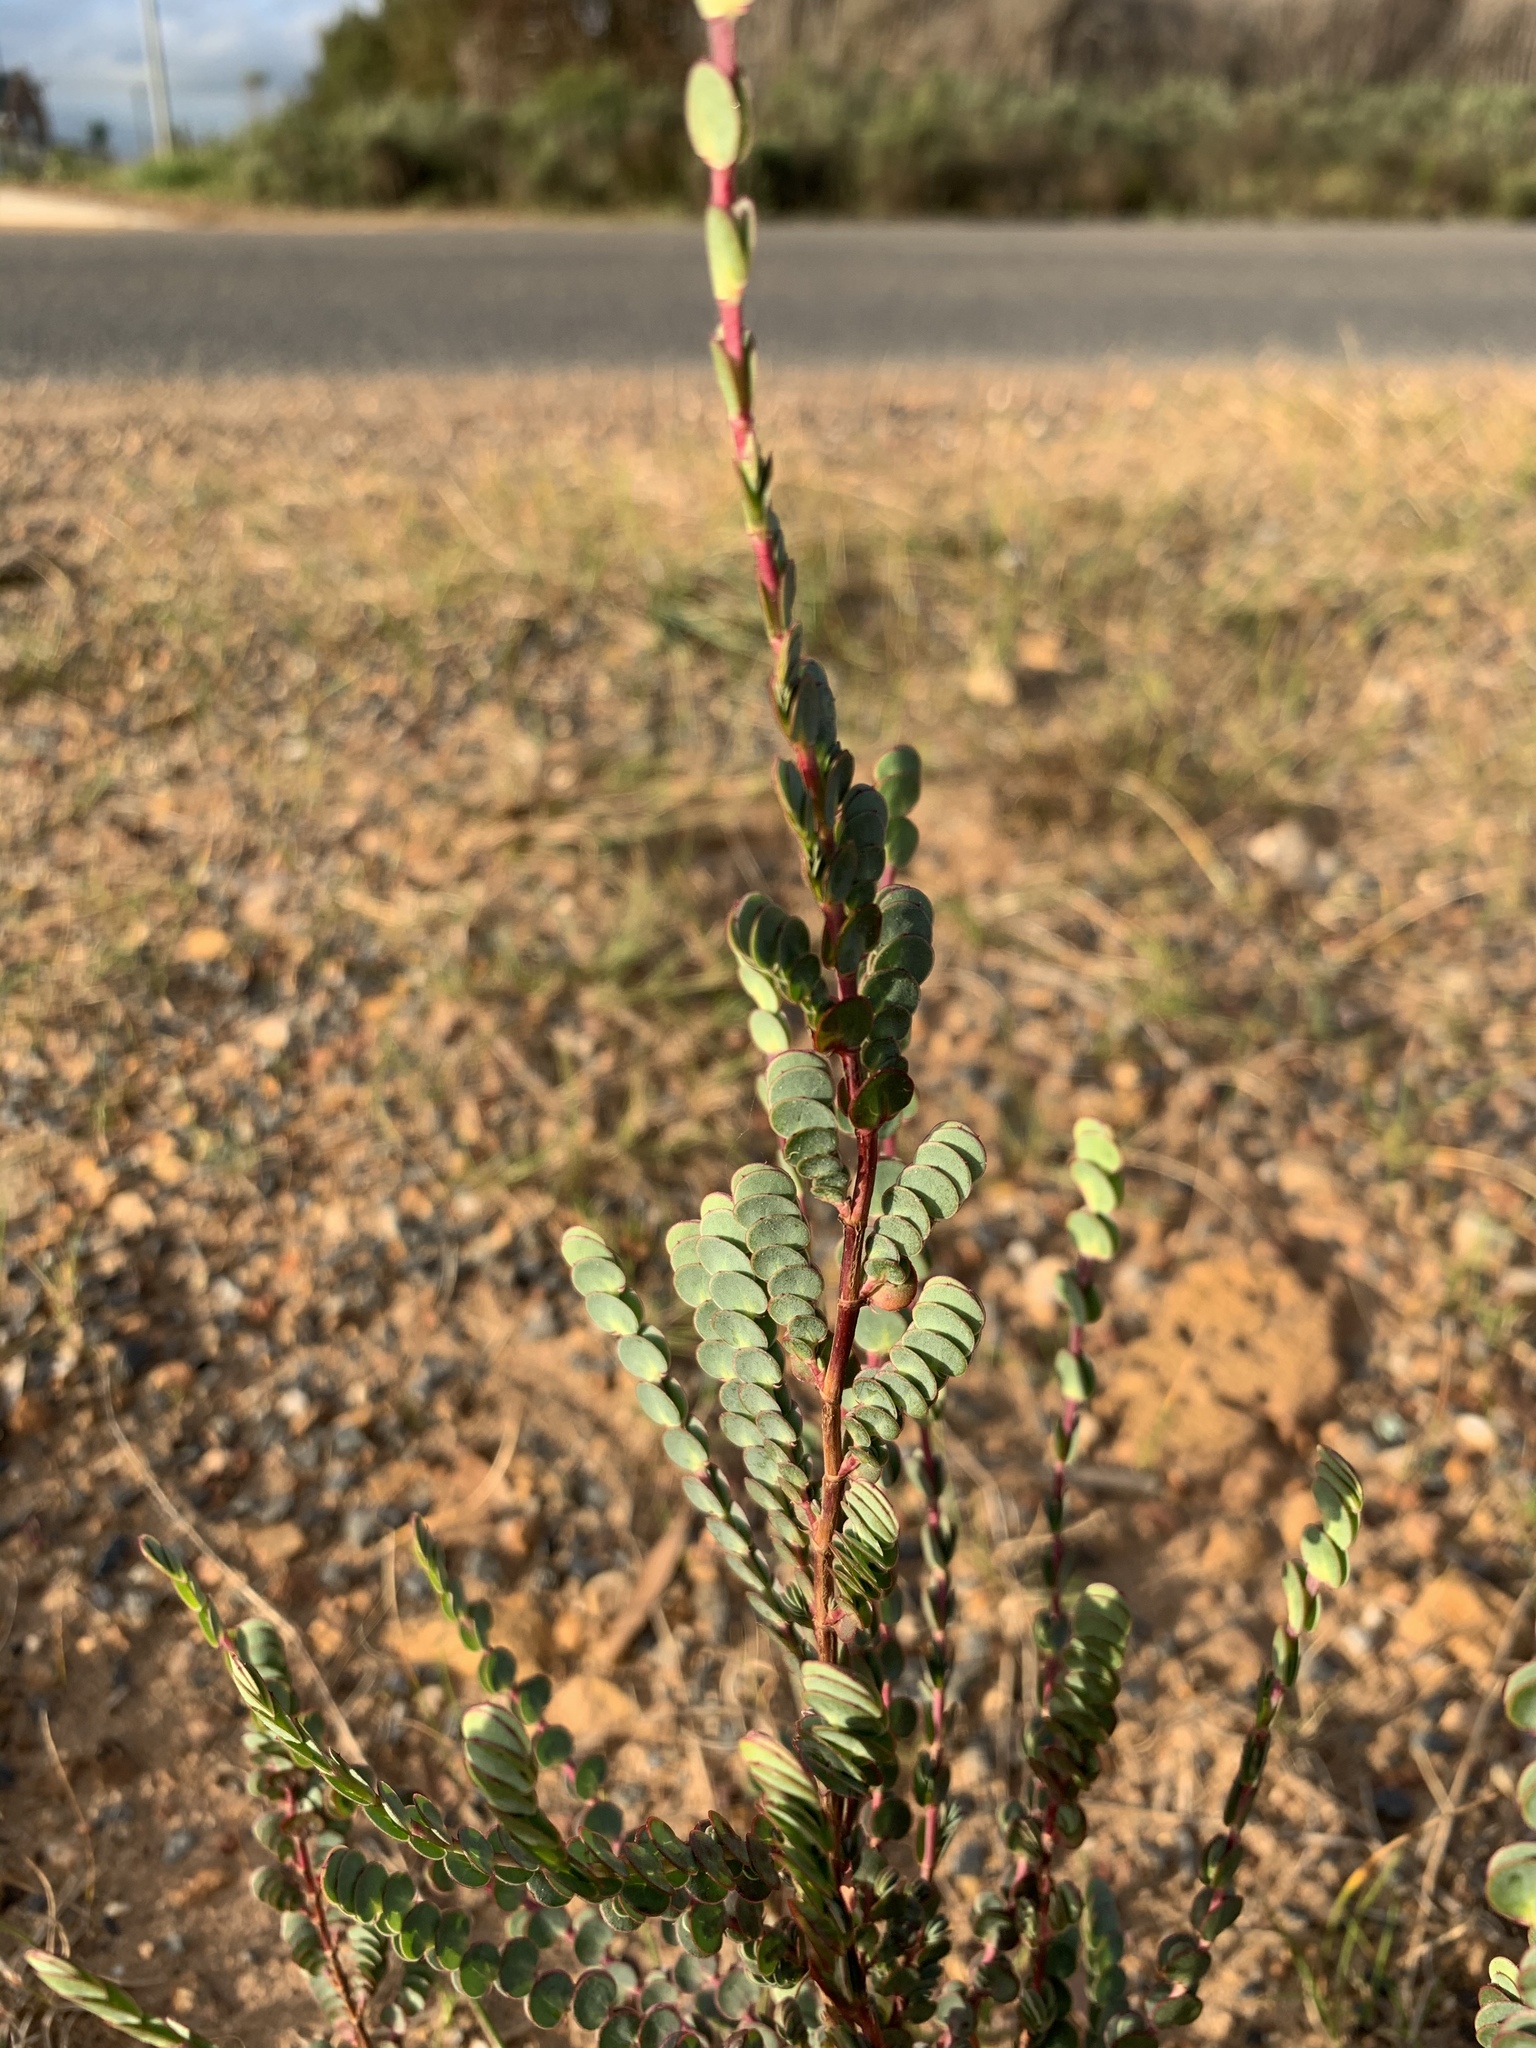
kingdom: Plantae
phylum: Tracheophyta
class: Magnoliopsida
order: Rosales
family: Rosaceae
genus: Cliffortia
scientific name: Cliffortia phyllanthoides
